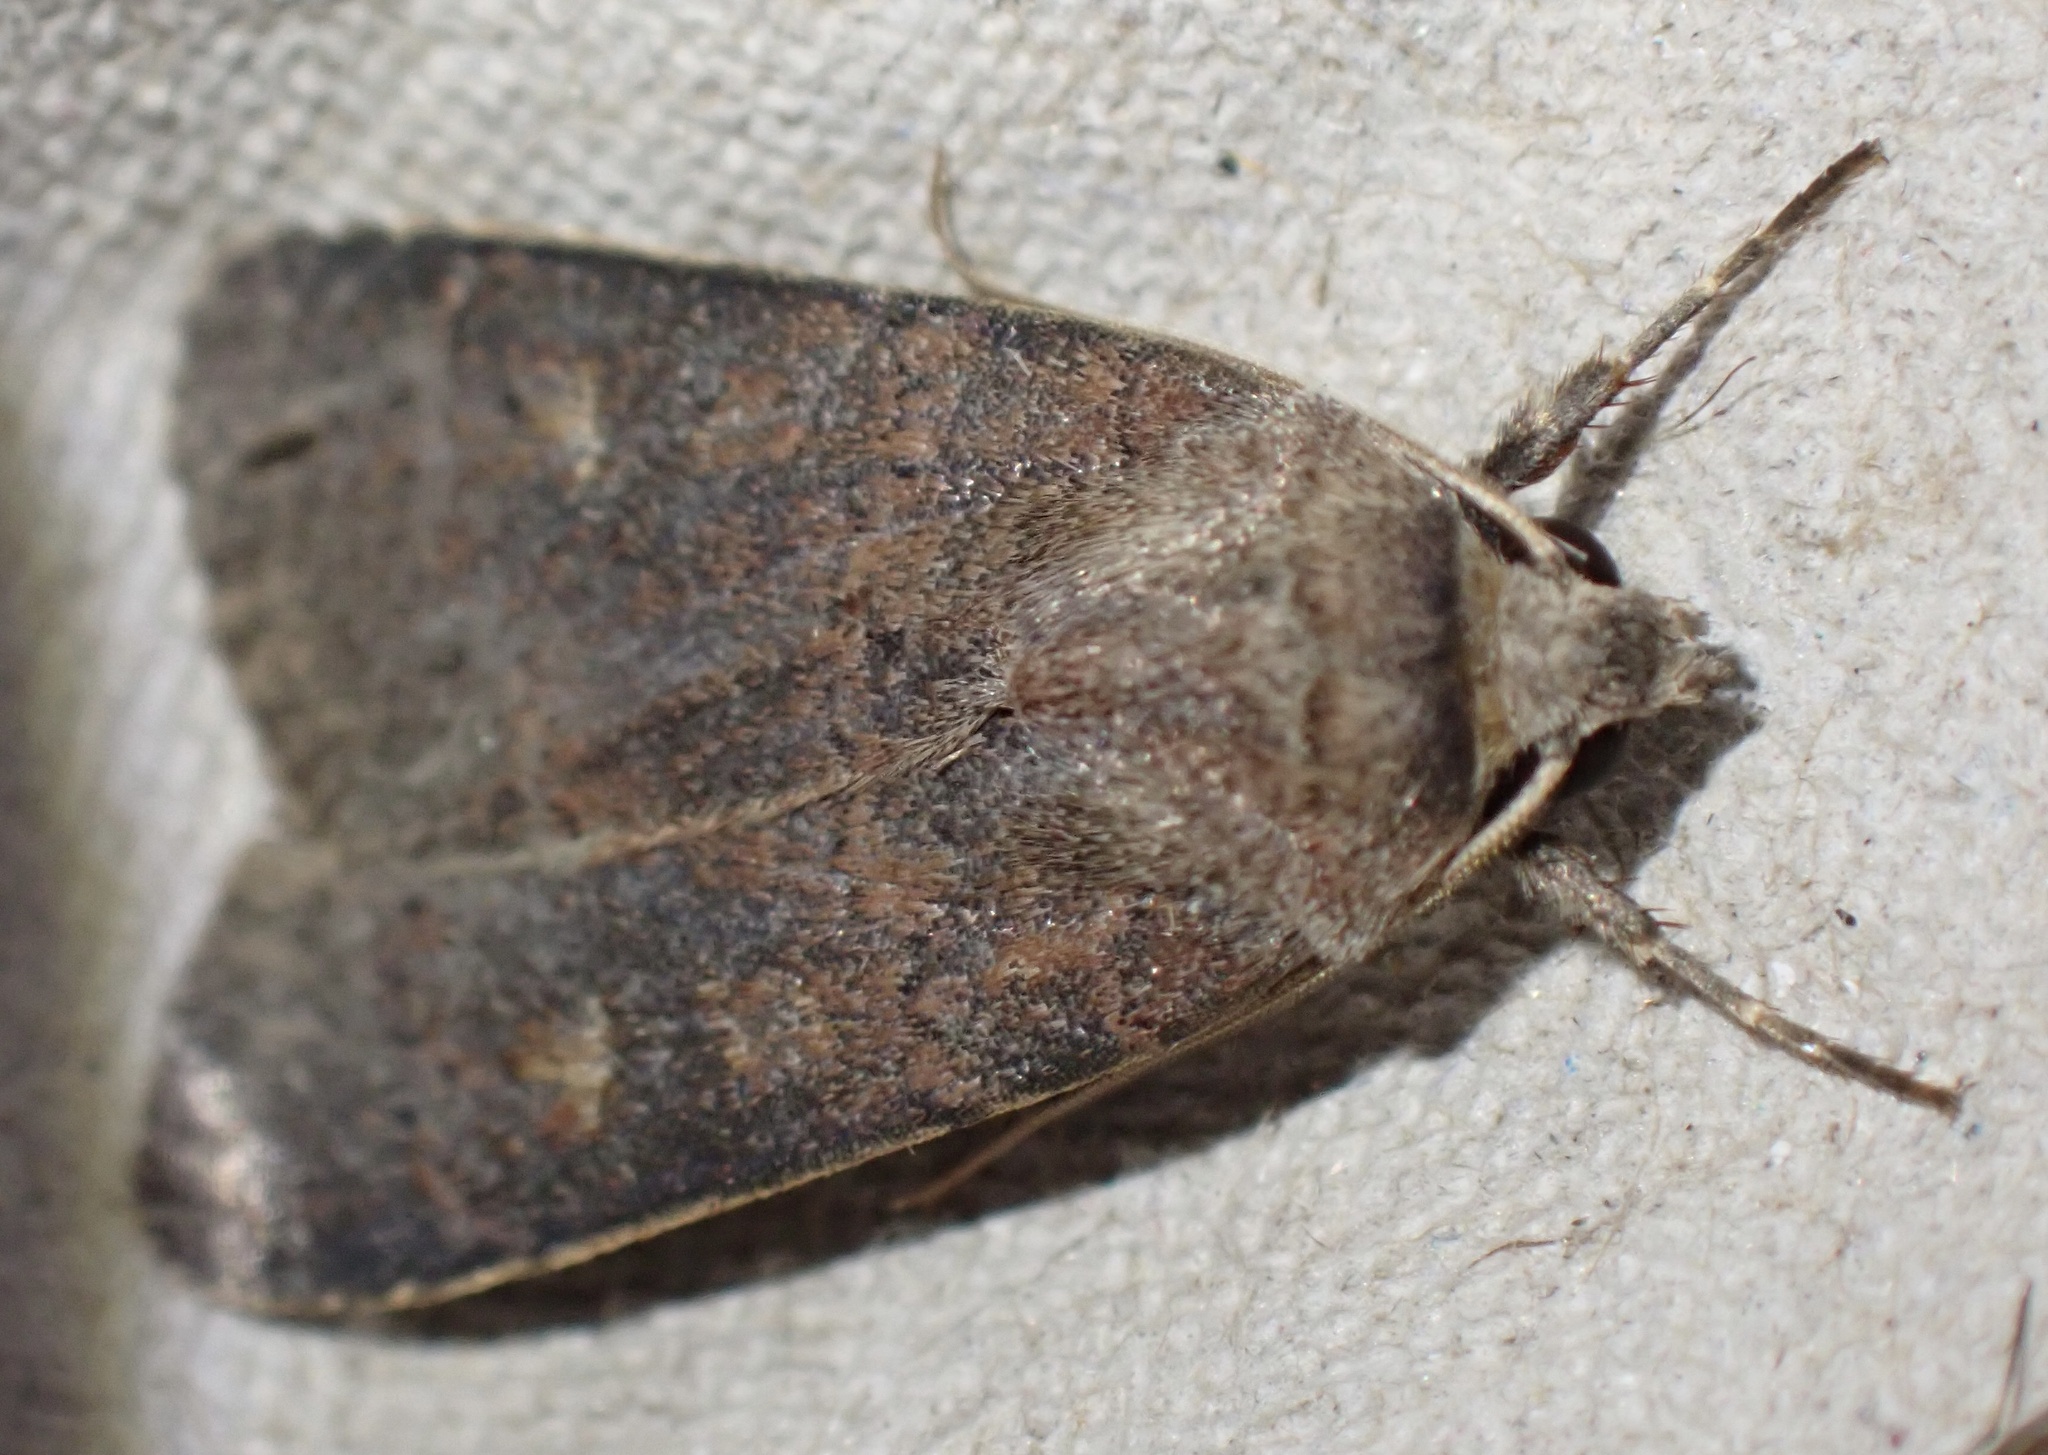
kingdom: Animalia
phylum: Arthropoda
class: Insecta
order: Lepidoptera
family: Noctuidae
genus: Xestia
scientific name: Xestia xanthographa
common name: Square-spot rustic
